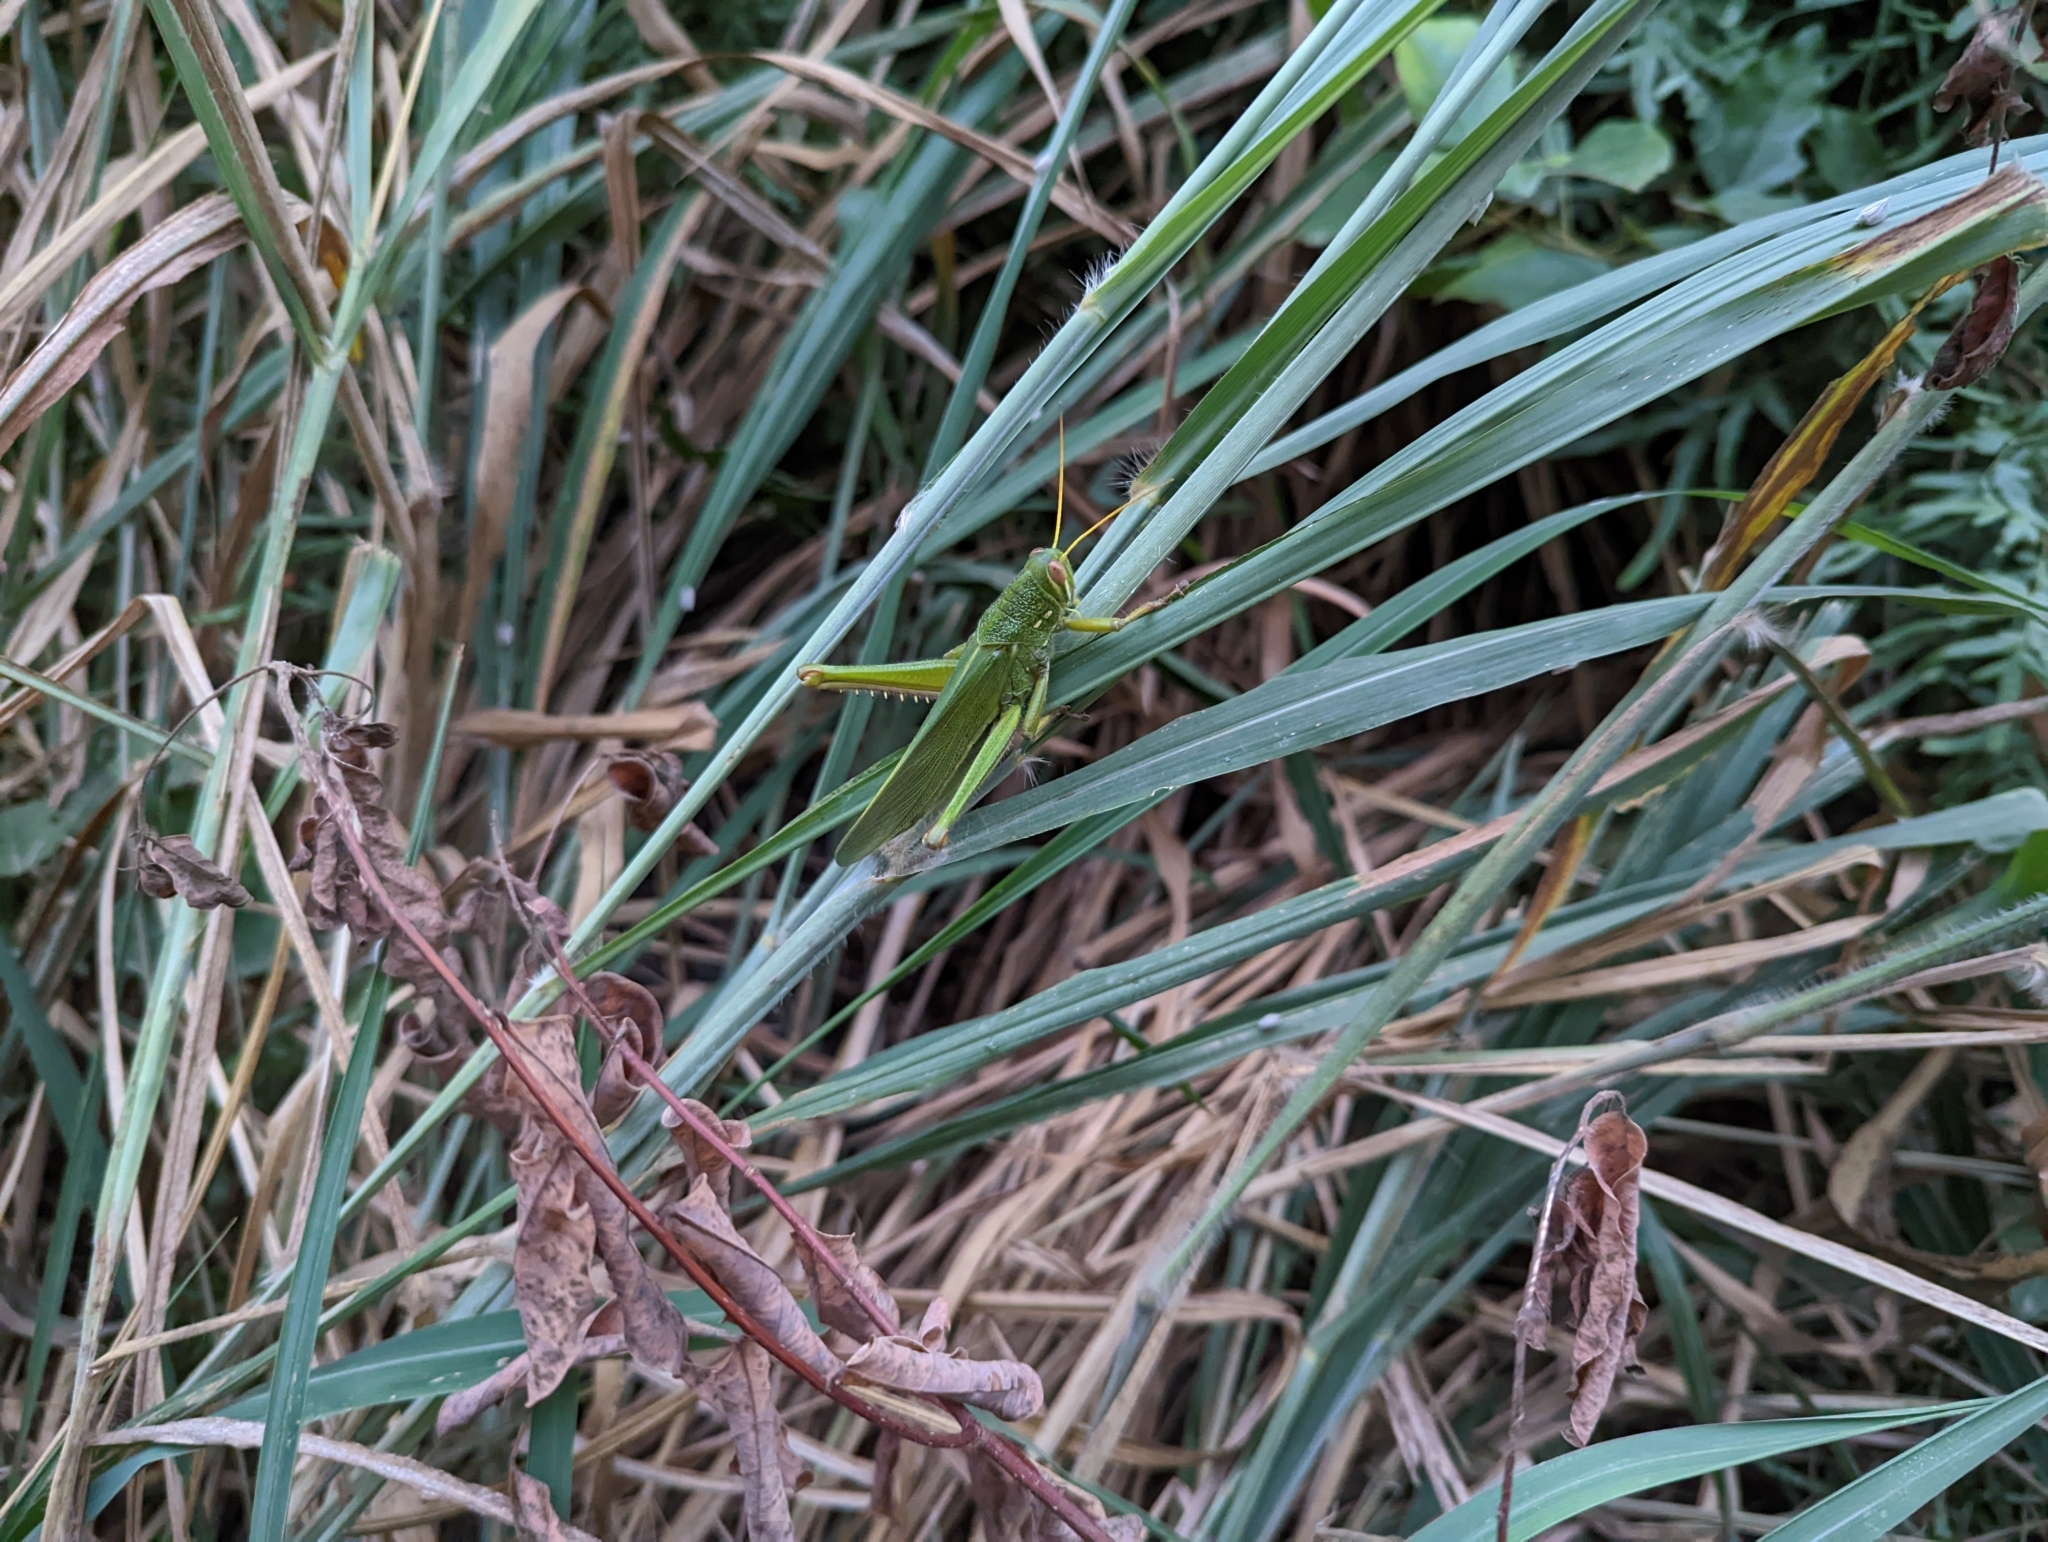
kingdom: Animalia
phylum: Arthropoda
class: Insecta
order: Orthoptera
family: Acrididae
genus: Chondracris
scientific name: Chondracris rosea
